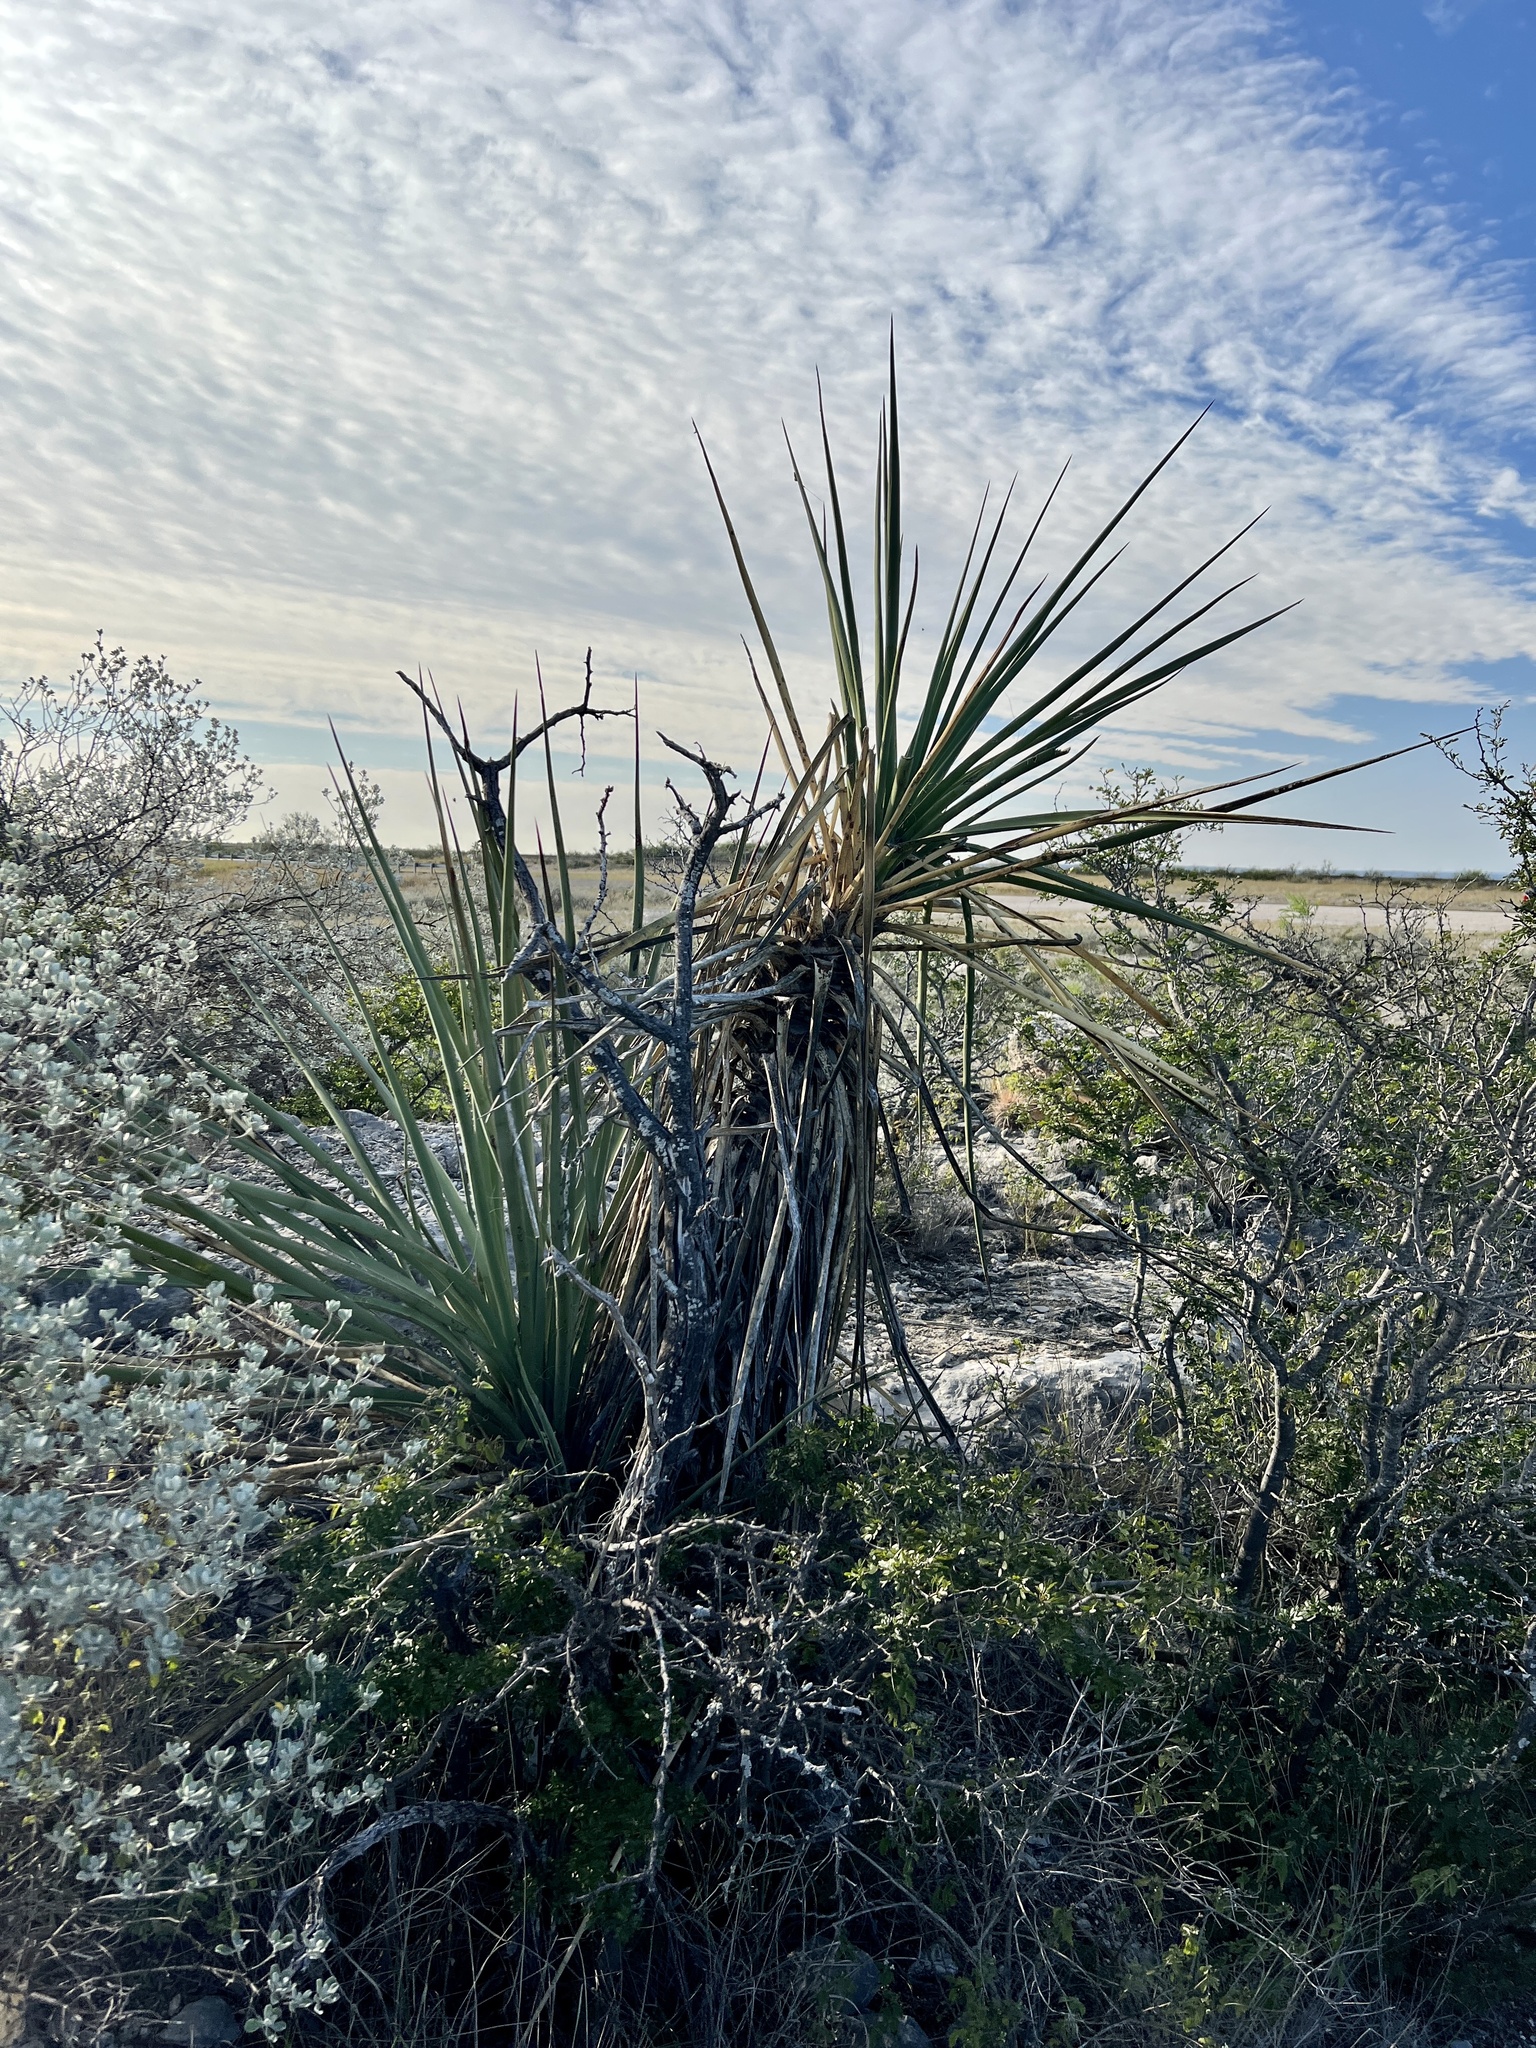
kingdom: Plantae
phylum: Tracheophyta
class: Liliopsida
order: Asparagales
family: Asparagaceae
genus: Yucca
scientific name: Yucca treculiana
